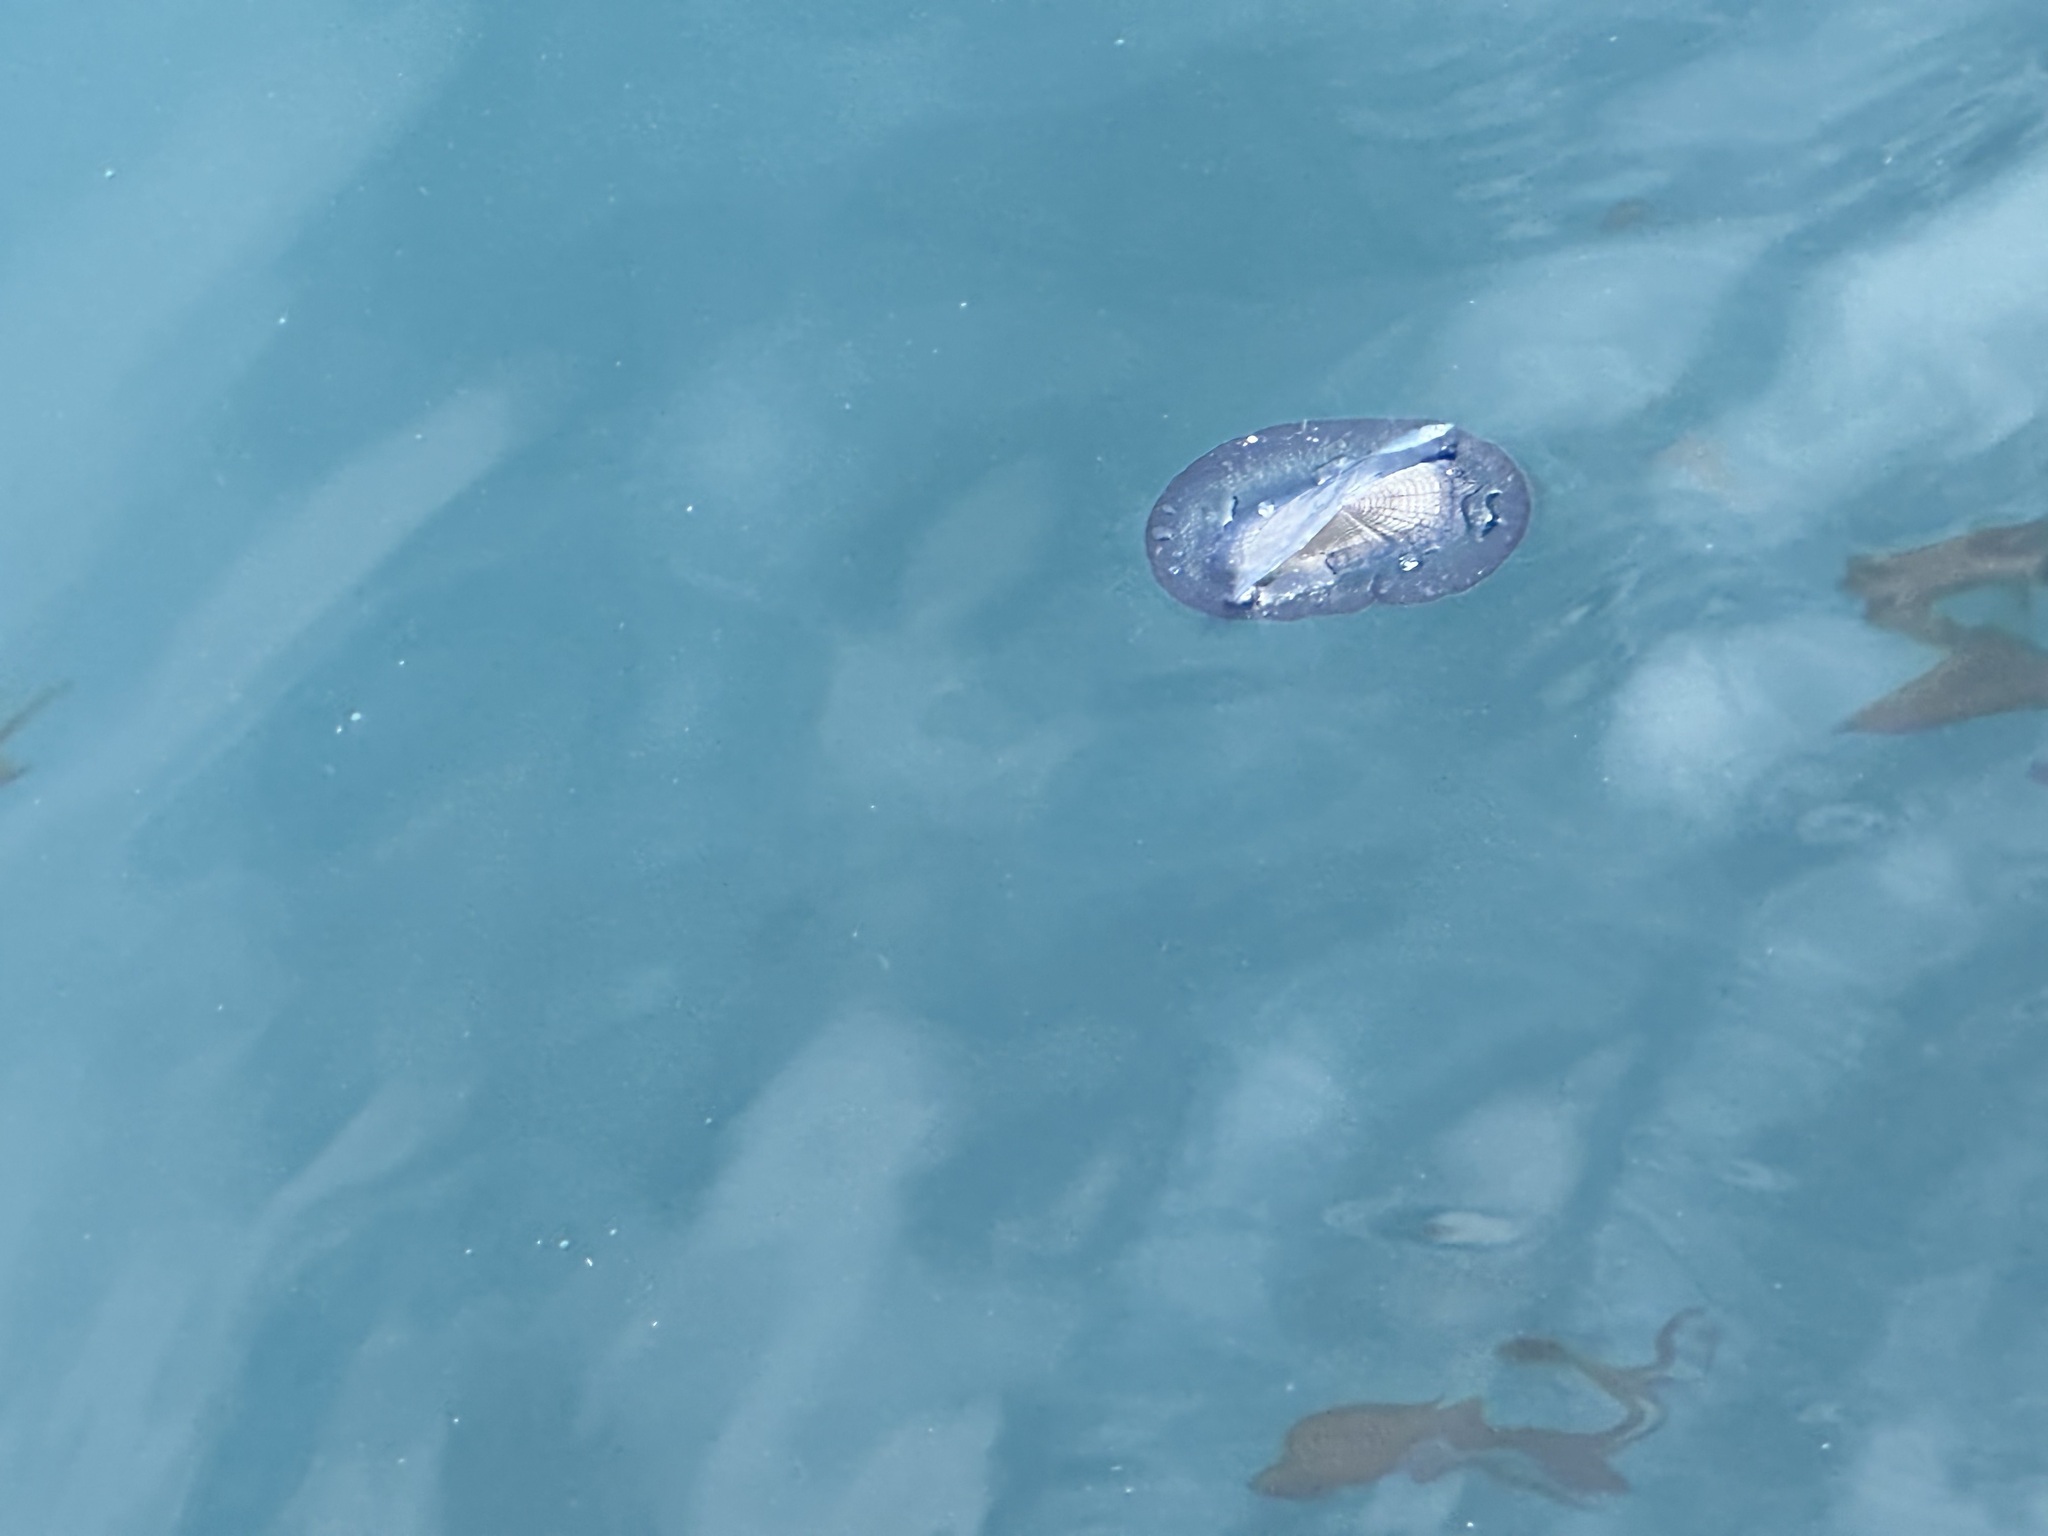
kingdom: Animalia
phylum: Cnidaria
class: Hydrozoa
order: Anthoathecata
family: Porpitidae
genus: Velella
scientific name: Velella velella
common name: By-the-wind-sailor
